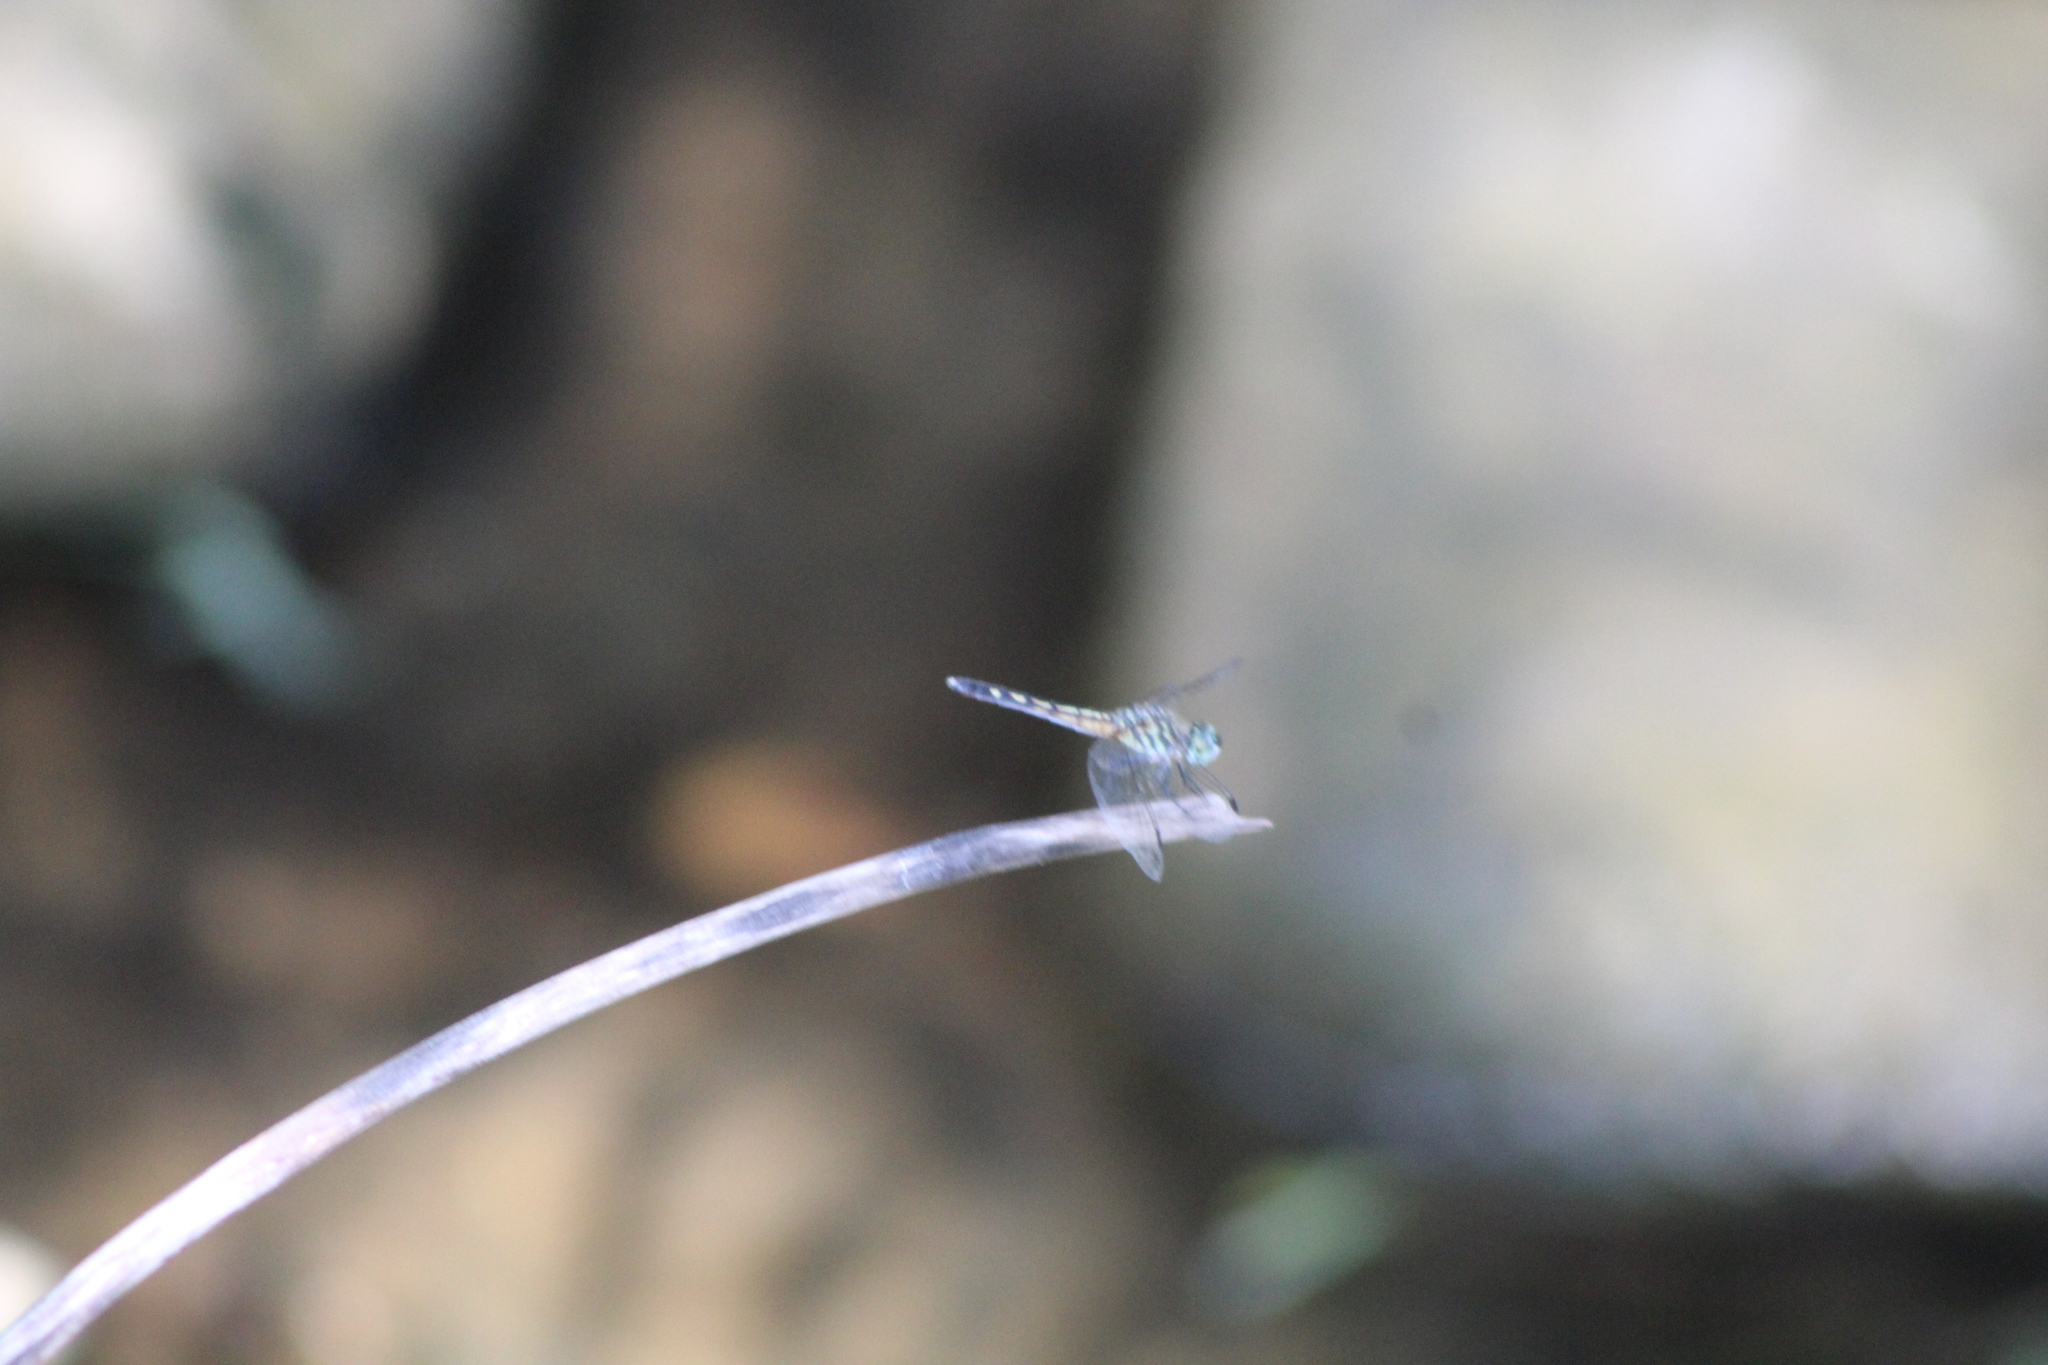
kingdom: Animalia
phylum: Arthropoda
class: Insecta
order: Odonata
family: Libellulidae
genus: Pachydiplax
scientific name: Pachydiplax longipennis
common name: Blue dasher
